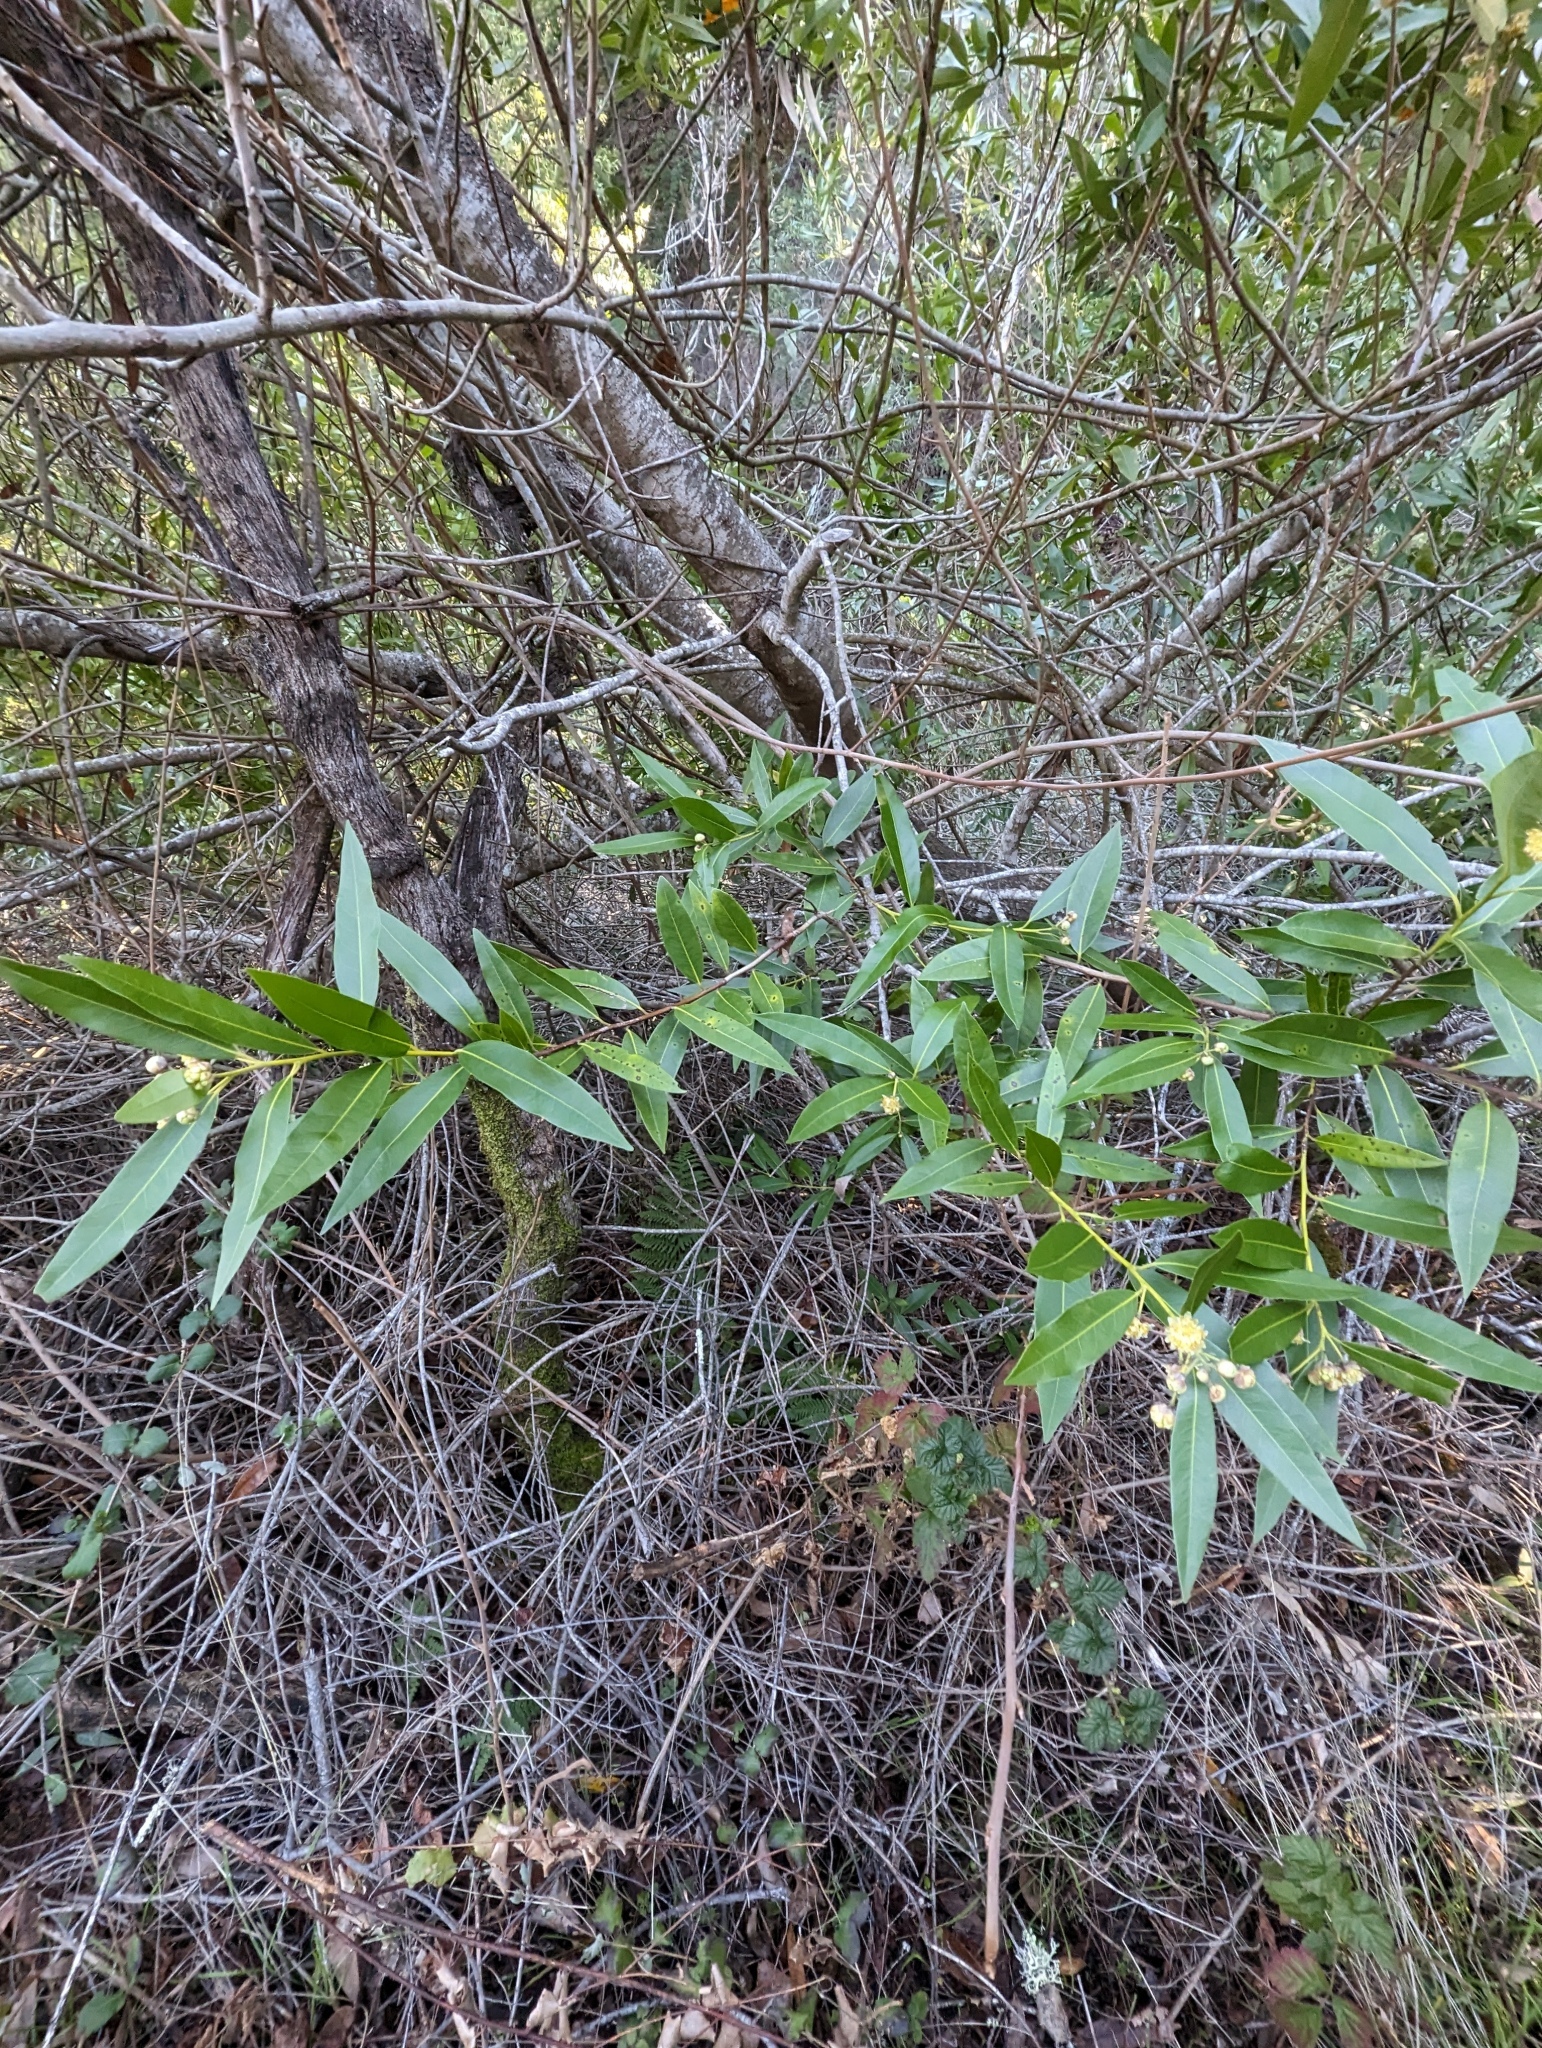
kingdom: Plantae
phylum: Tracheophyta
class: Magnoliopsida
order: Laurales
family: Lauraceae
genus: Umbellularia
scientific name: Umbellularia californica
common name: California bay
